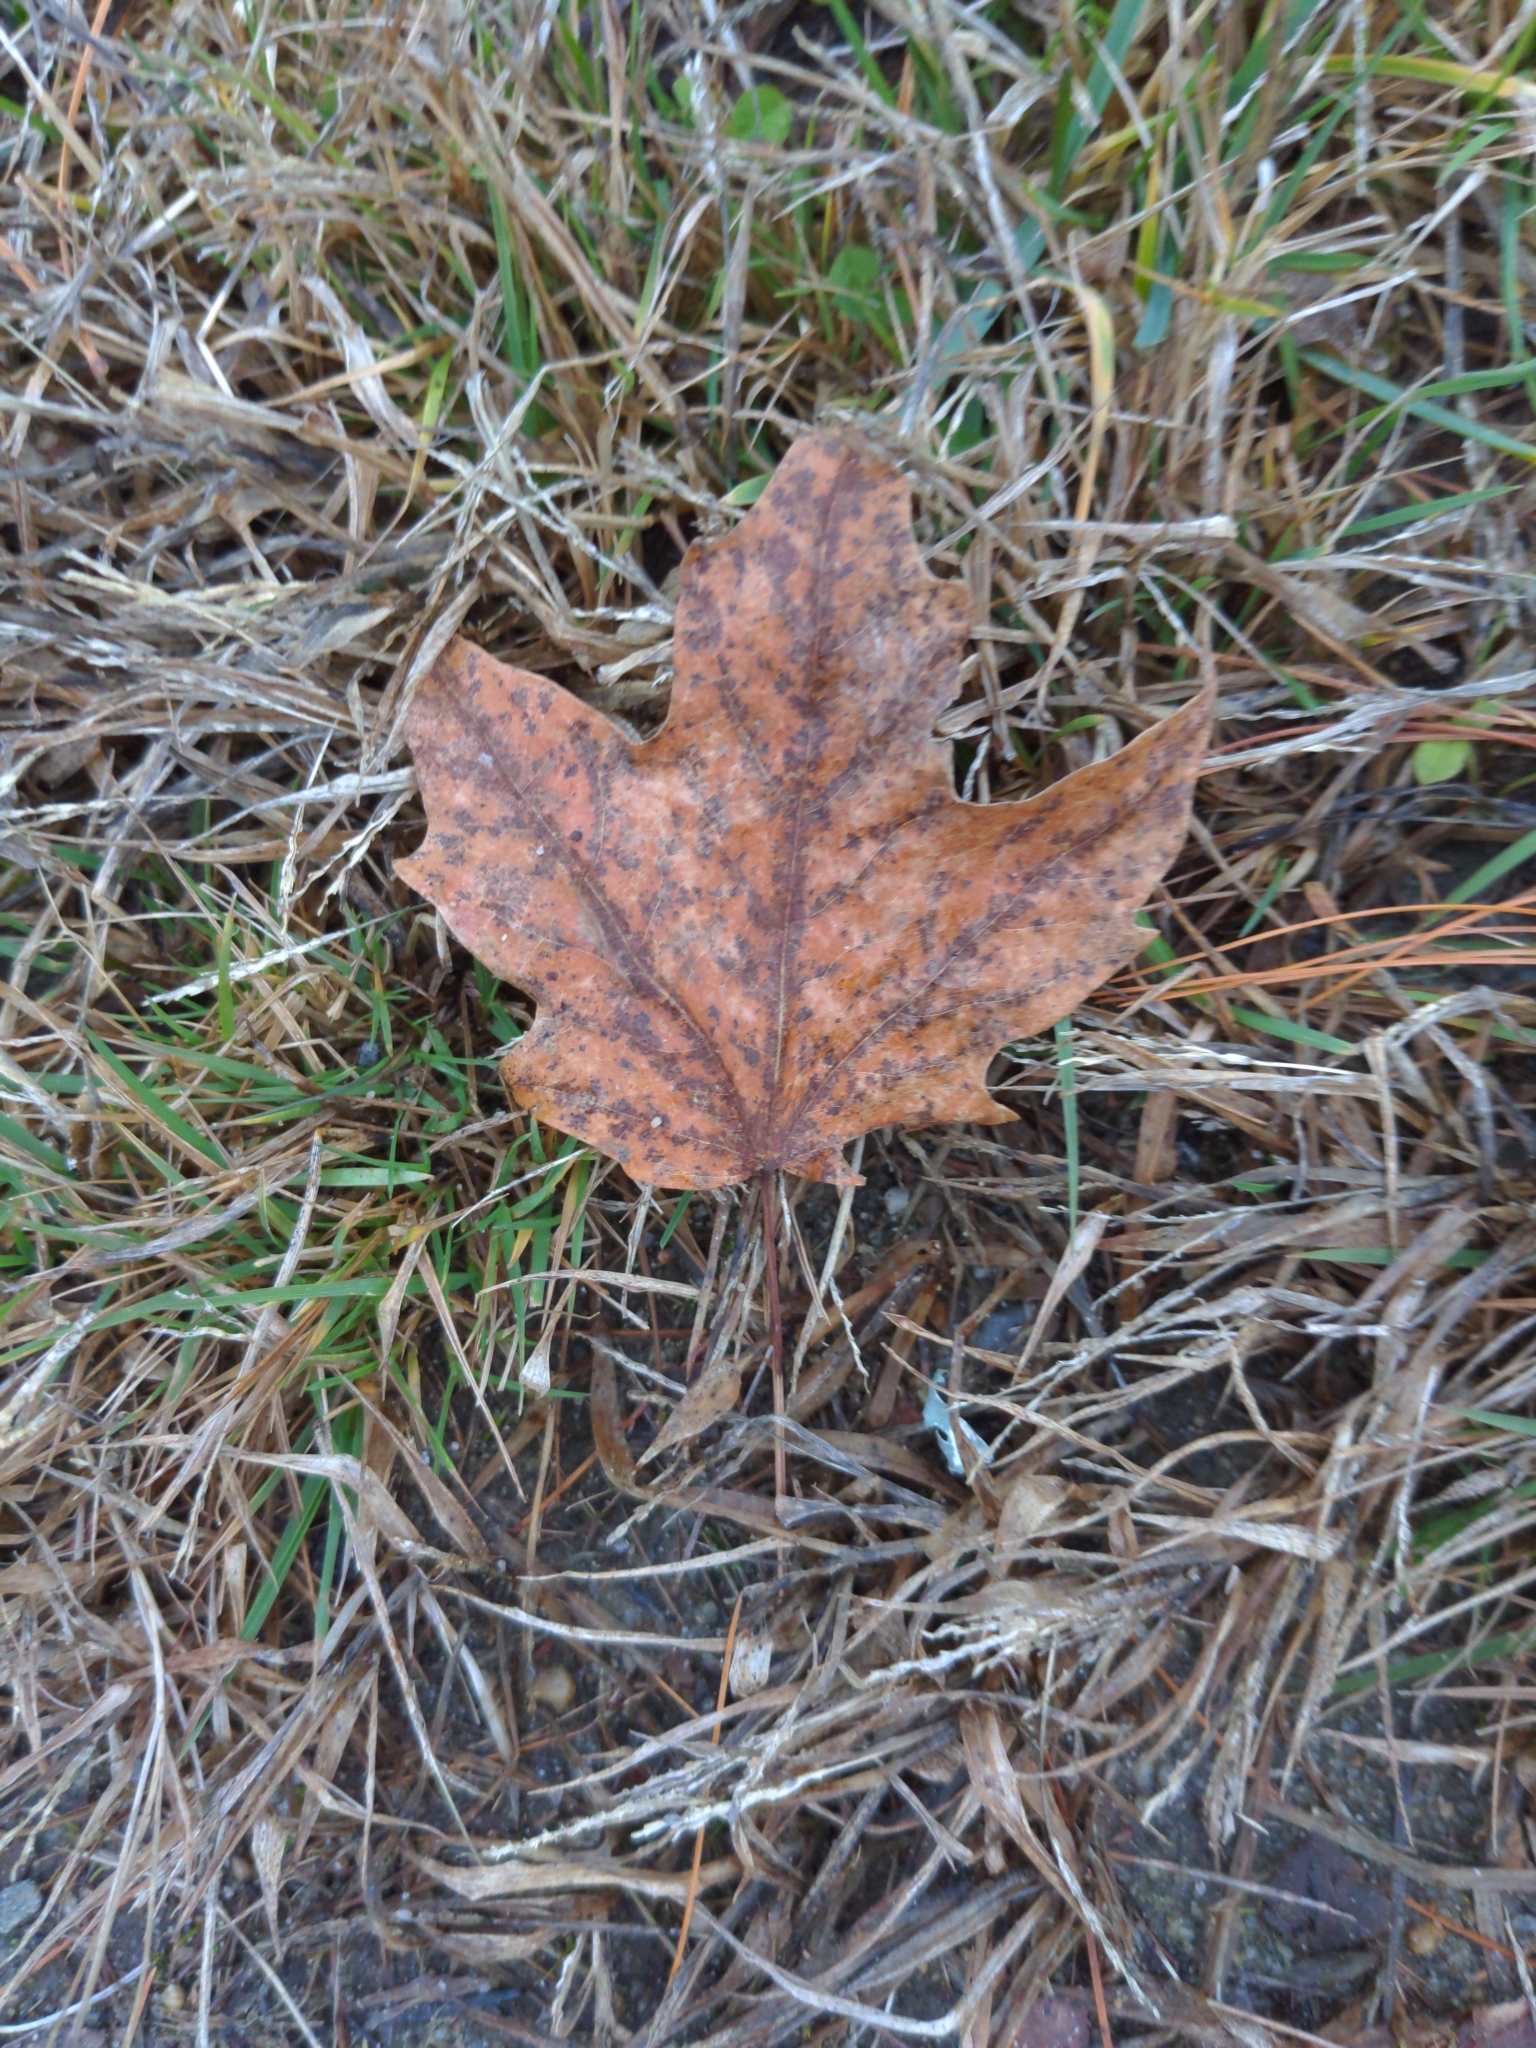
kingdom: Plantae
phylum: Tracheophyta
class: Magnoliopsida
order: Sapindales
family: Sapindaceae
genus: Acer
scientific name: Acer rubrum
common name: Red maple
